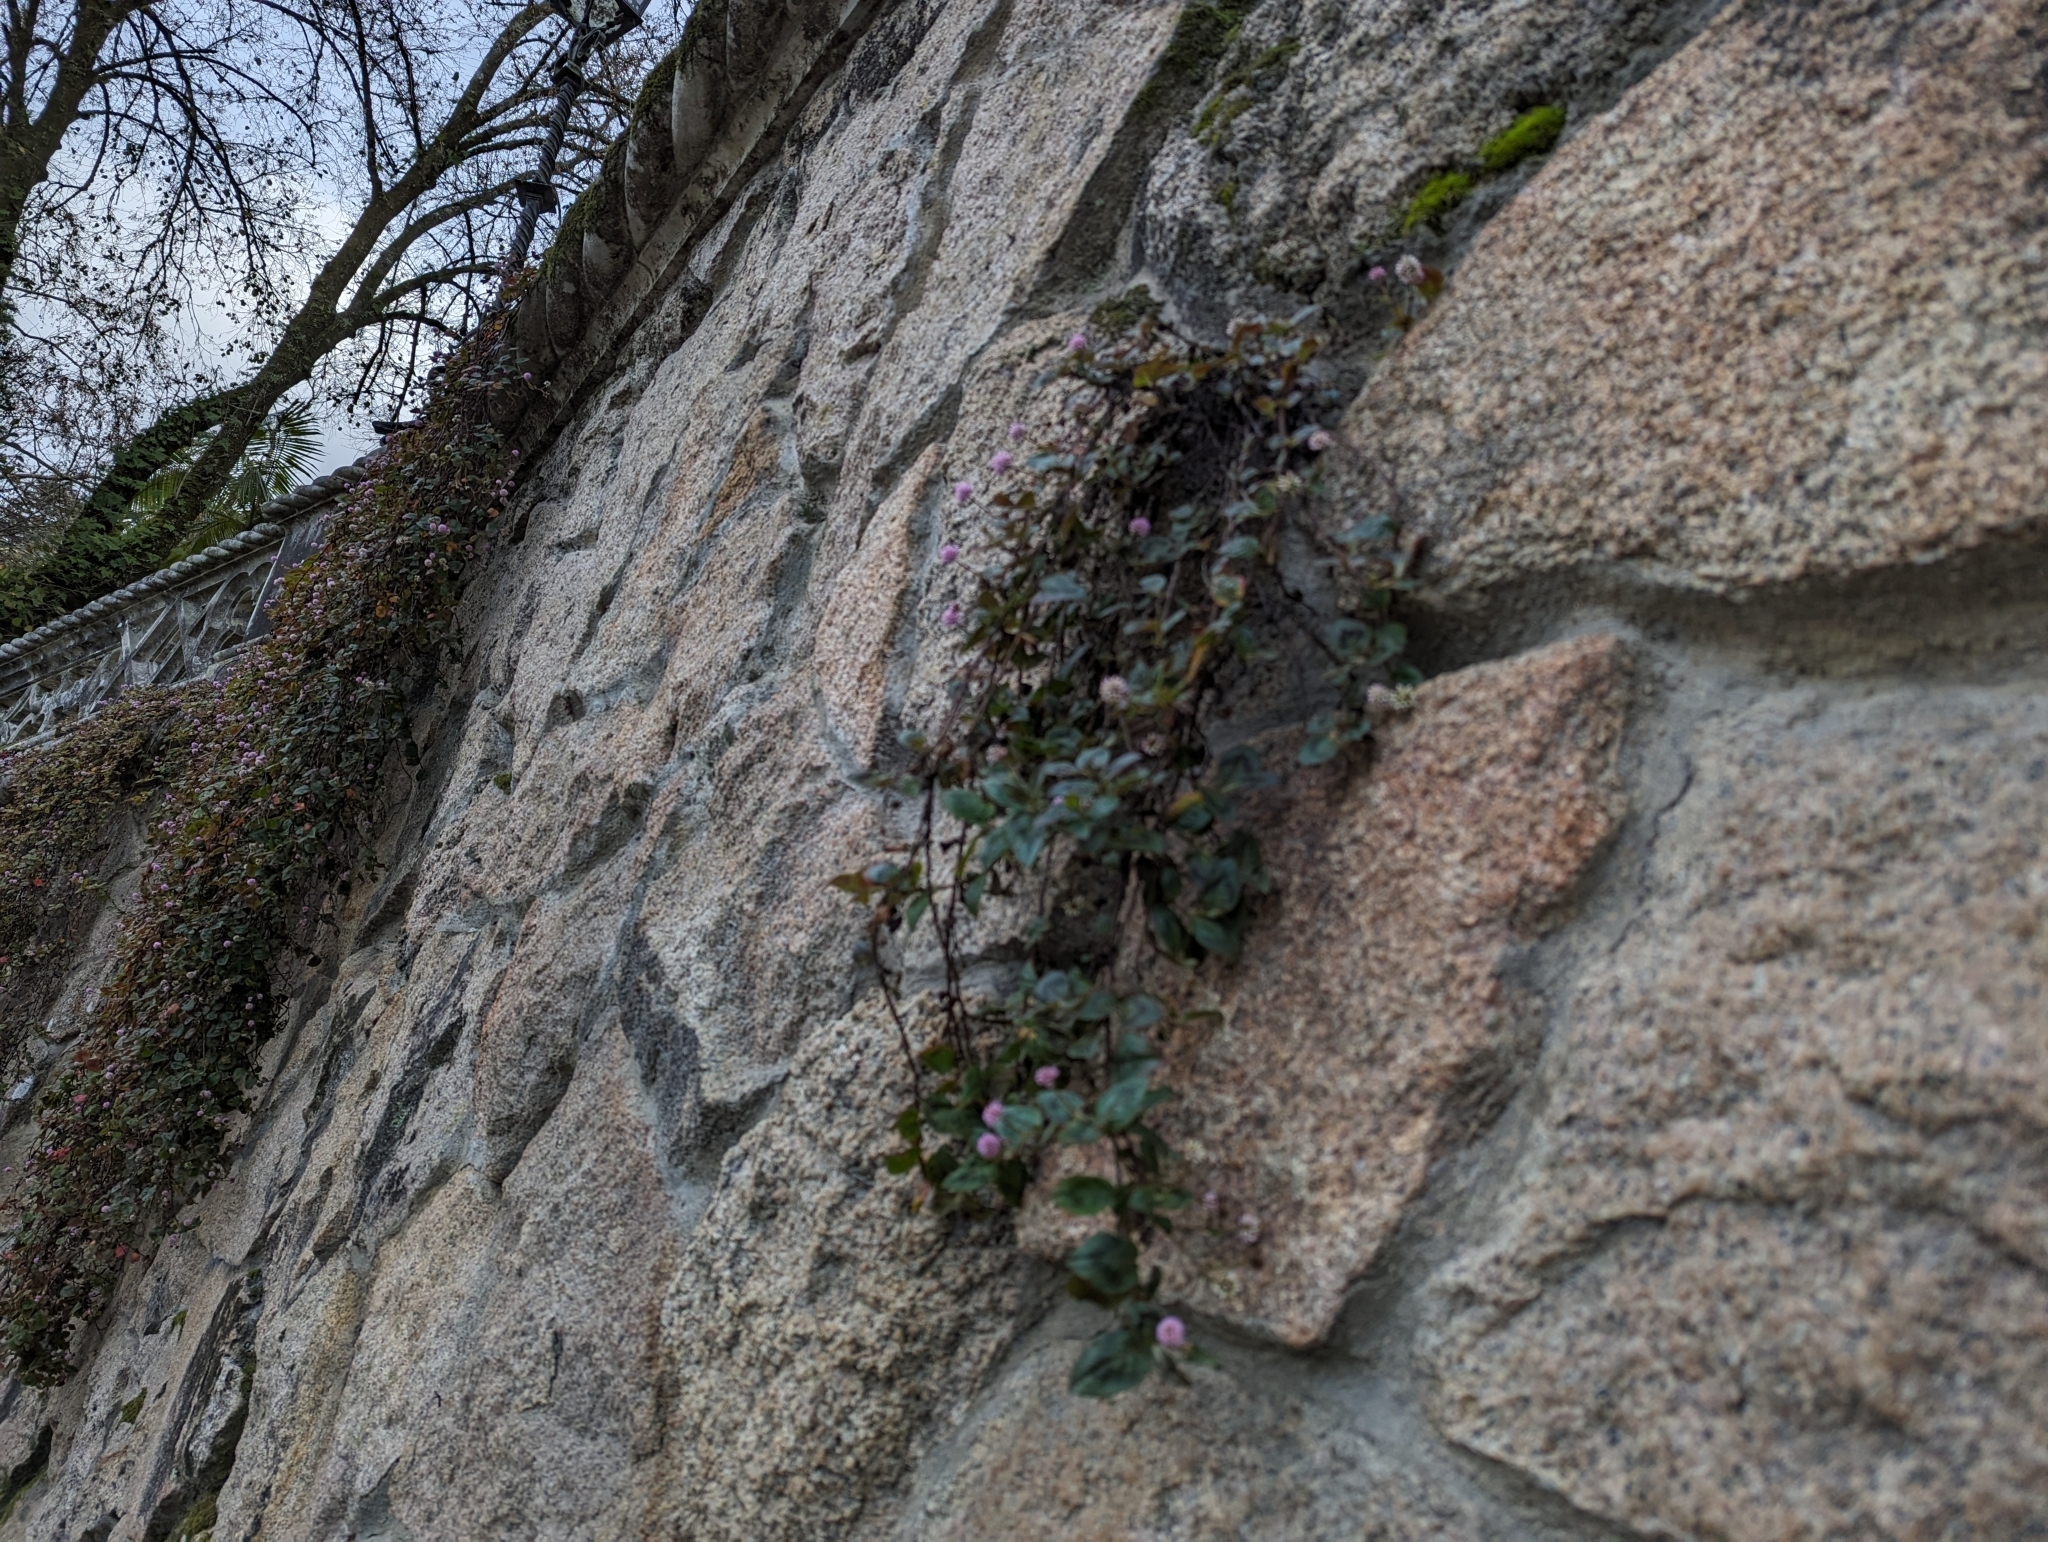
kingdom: Plantae
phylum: Tracheophyta
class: Magnoliopsida
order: Caryophyllales
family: Polygonaceae
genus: Persicaria
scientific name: Persicaria capitata
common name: Pinkhead smartweed
